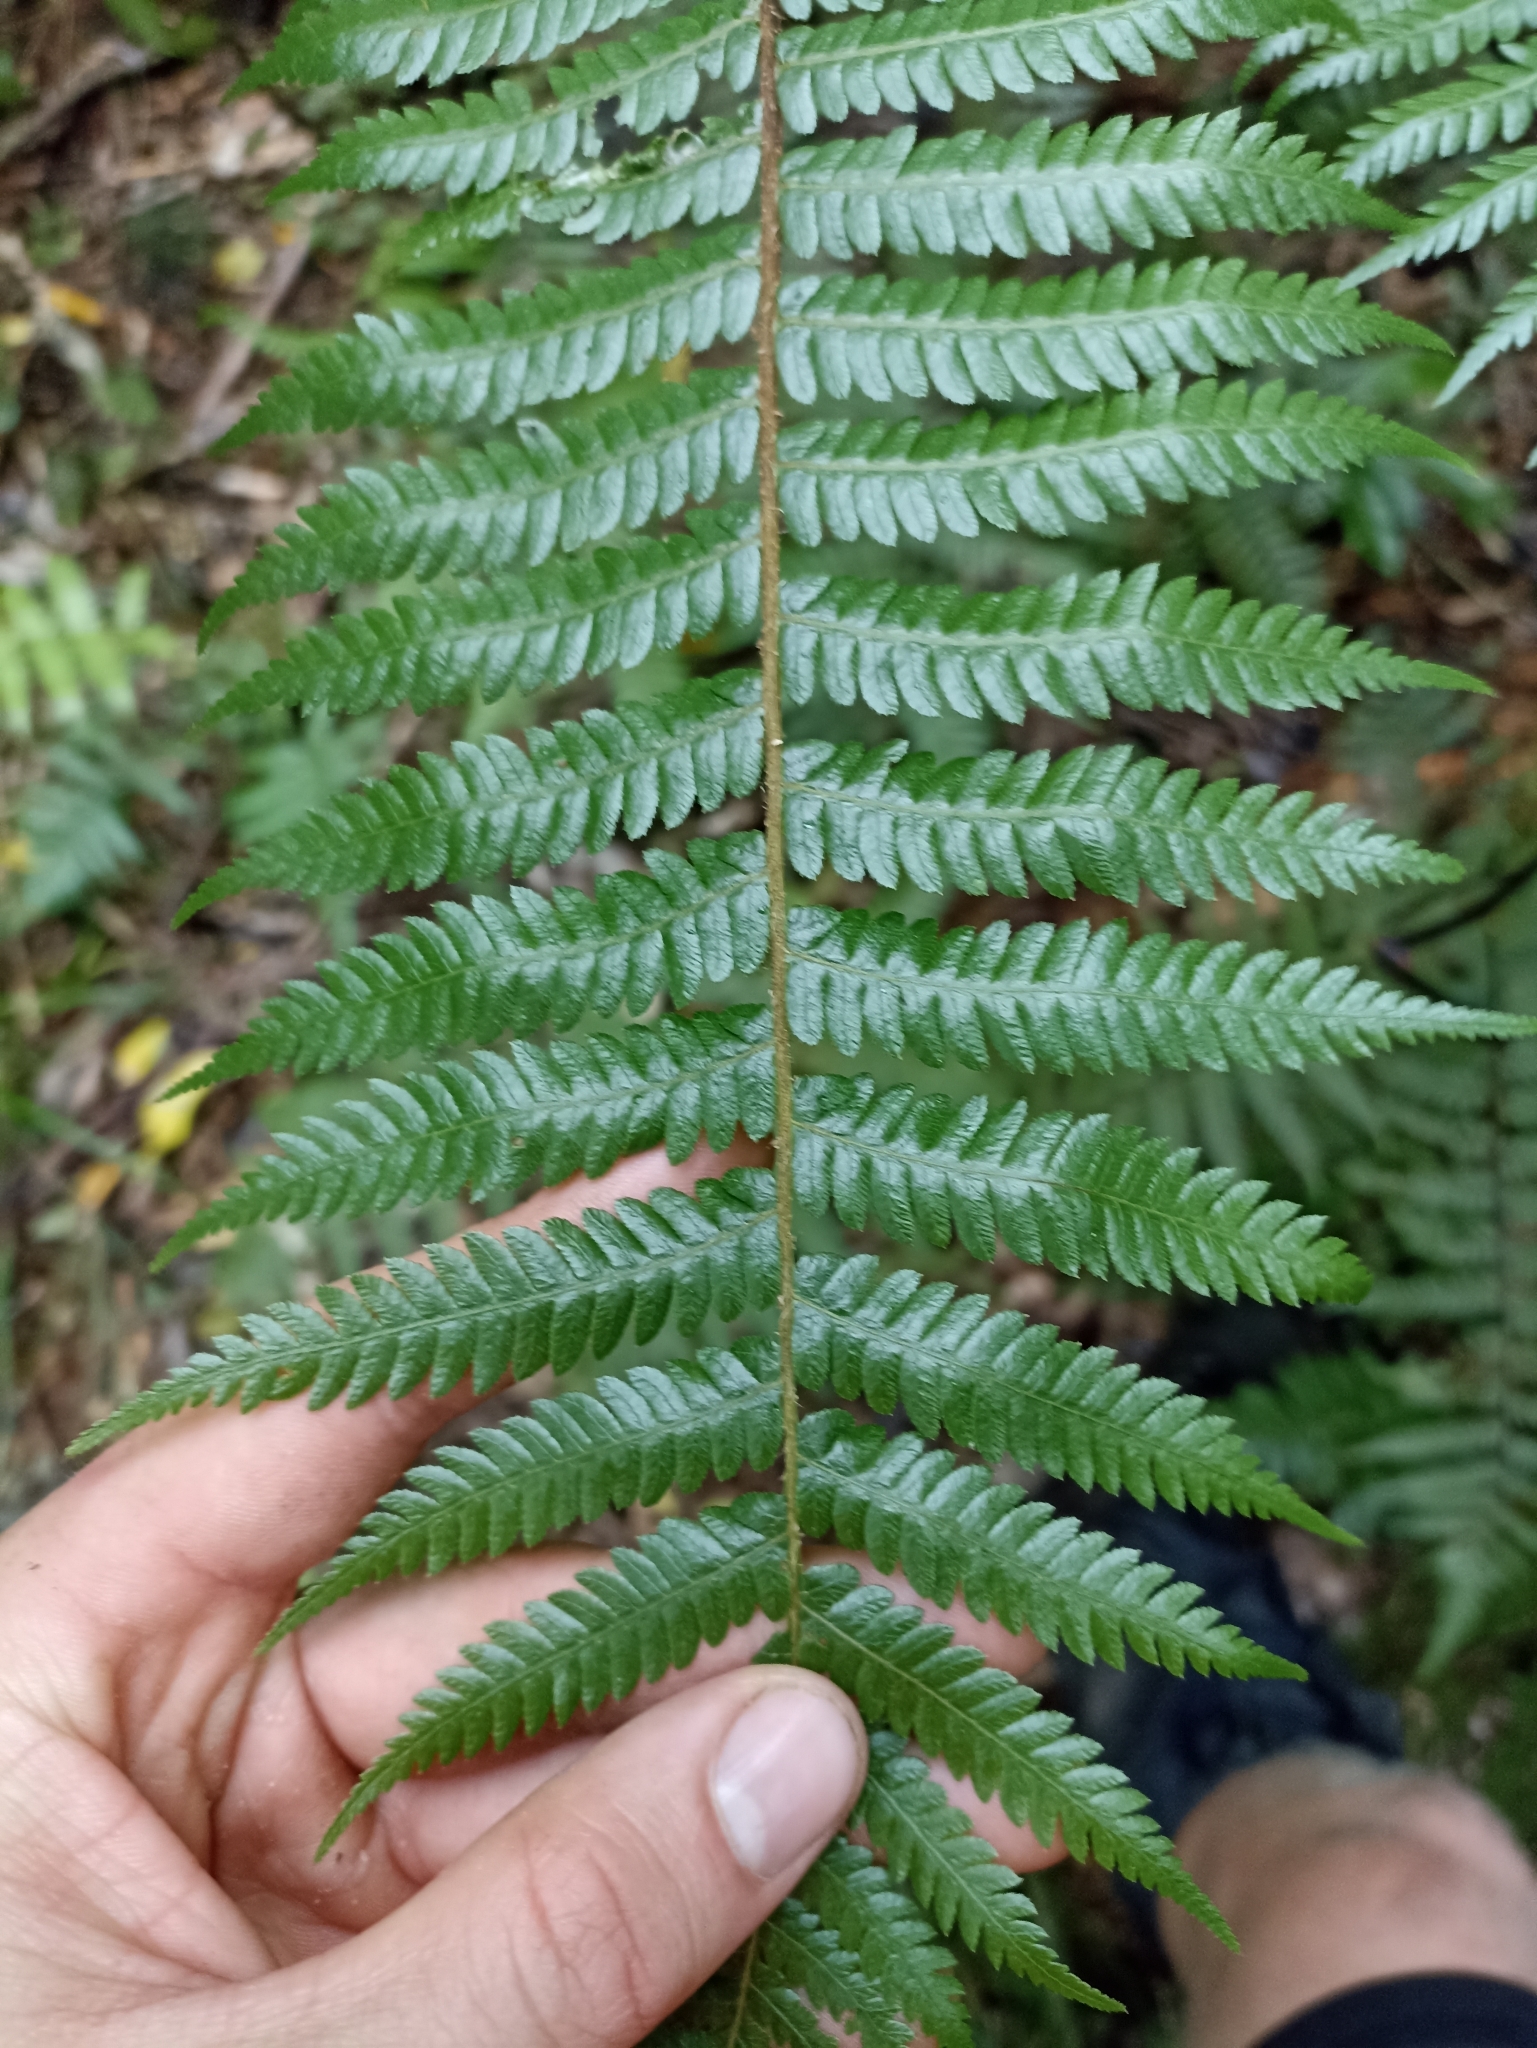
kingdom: Plantae
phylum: Tracheophyta
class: Polypodiopsida
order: Cyatheales
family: Cyatheaceae
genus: Sphaeropteris
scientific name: Sphaeropteris medullaris
